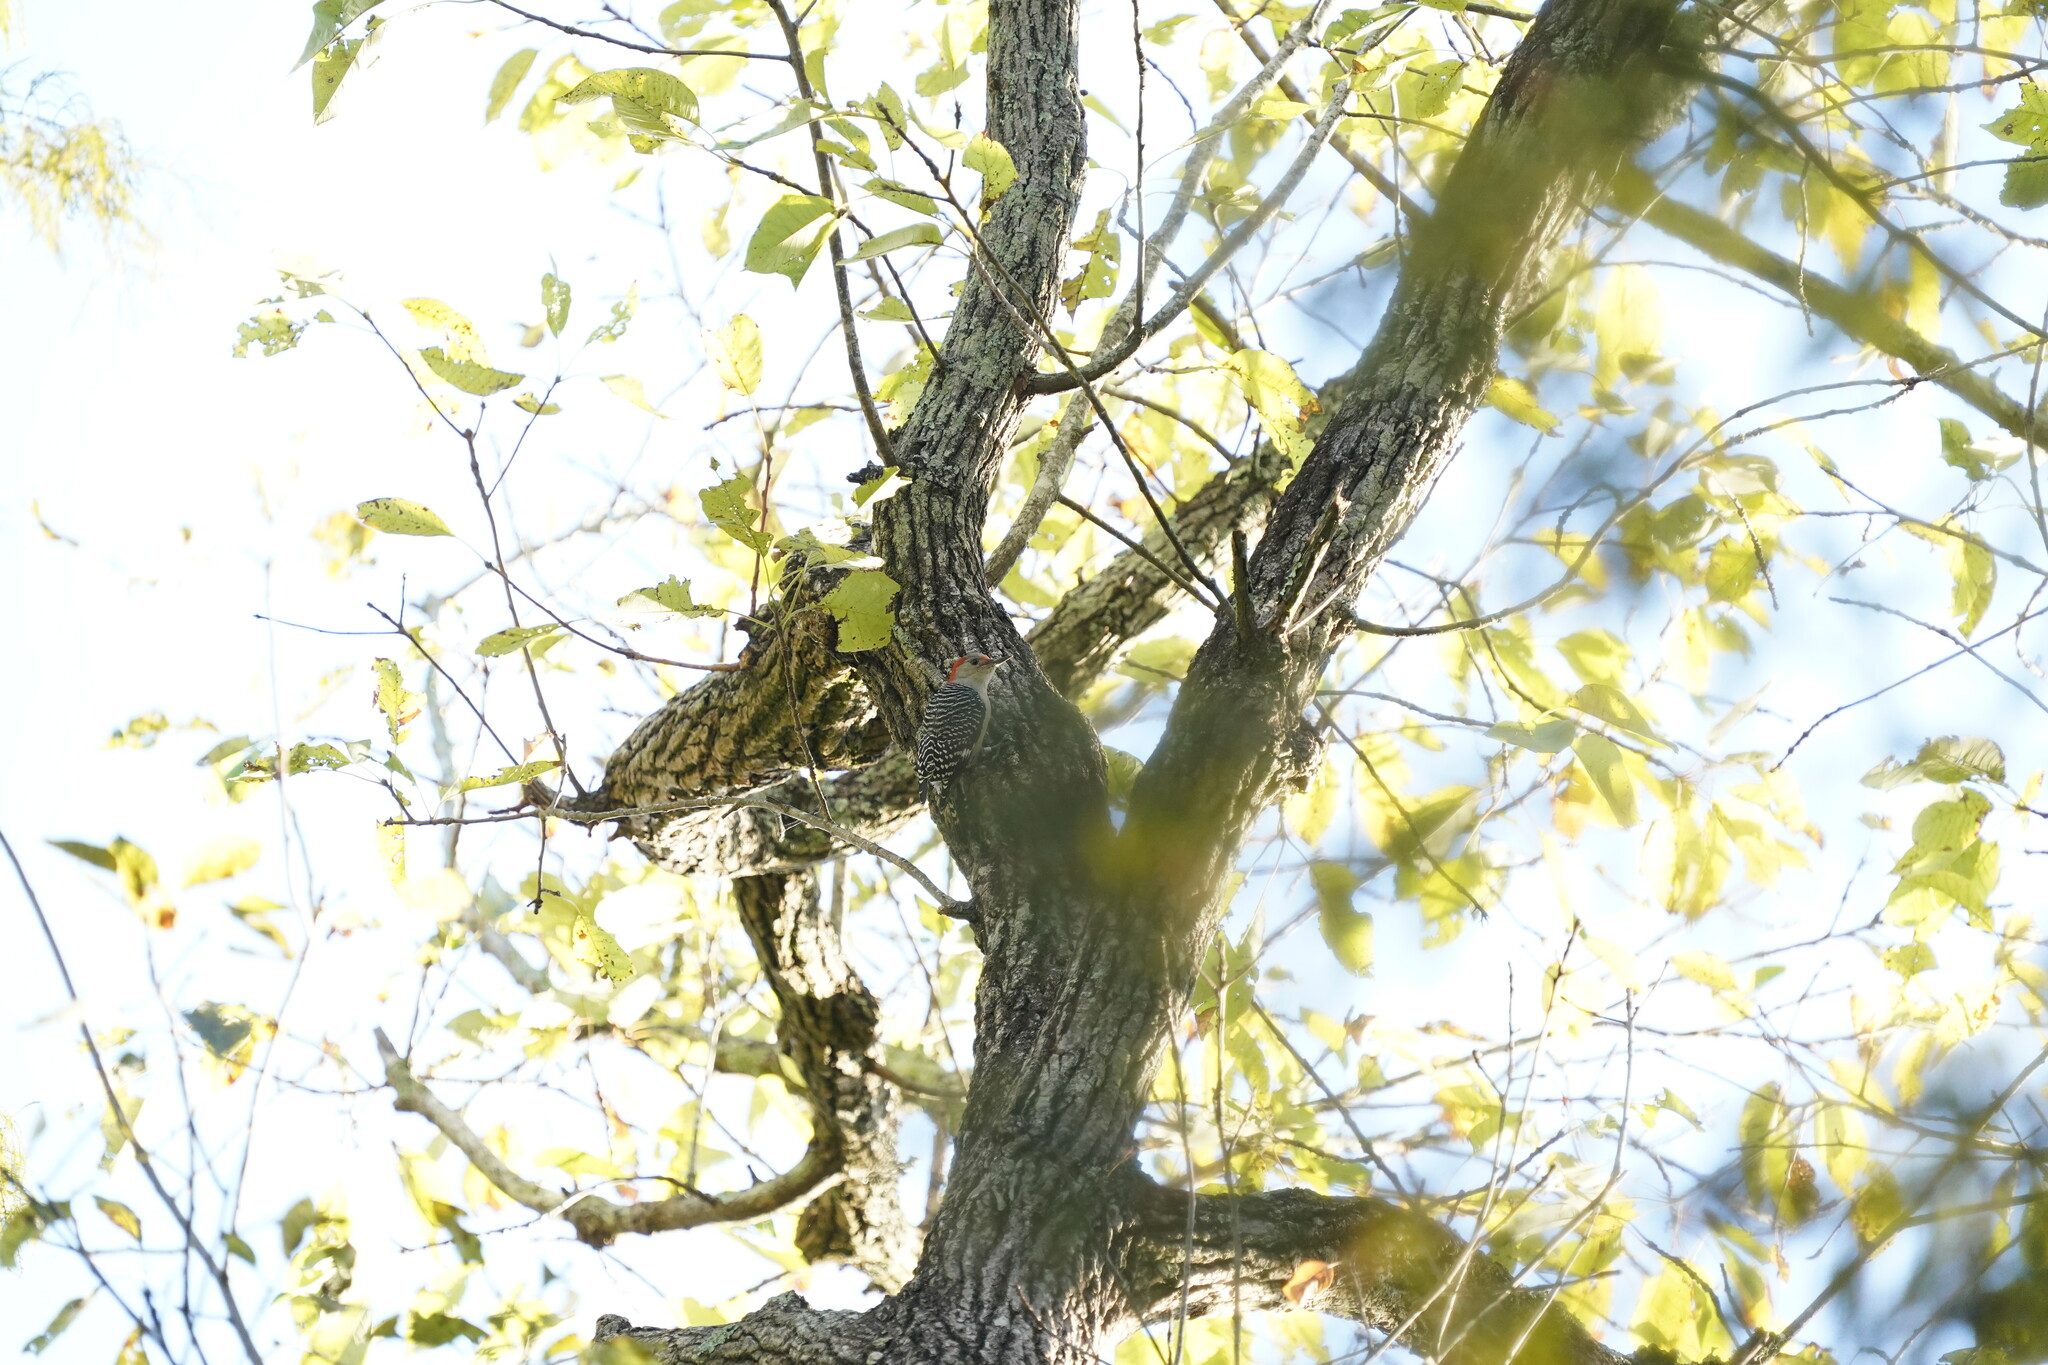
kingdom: Animalia
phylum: Chordata
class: Aves
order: Piciformes
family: Picidae
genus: Melanerpes
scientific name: Melanerpes carolinus
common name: Red-bellied woodpecker
